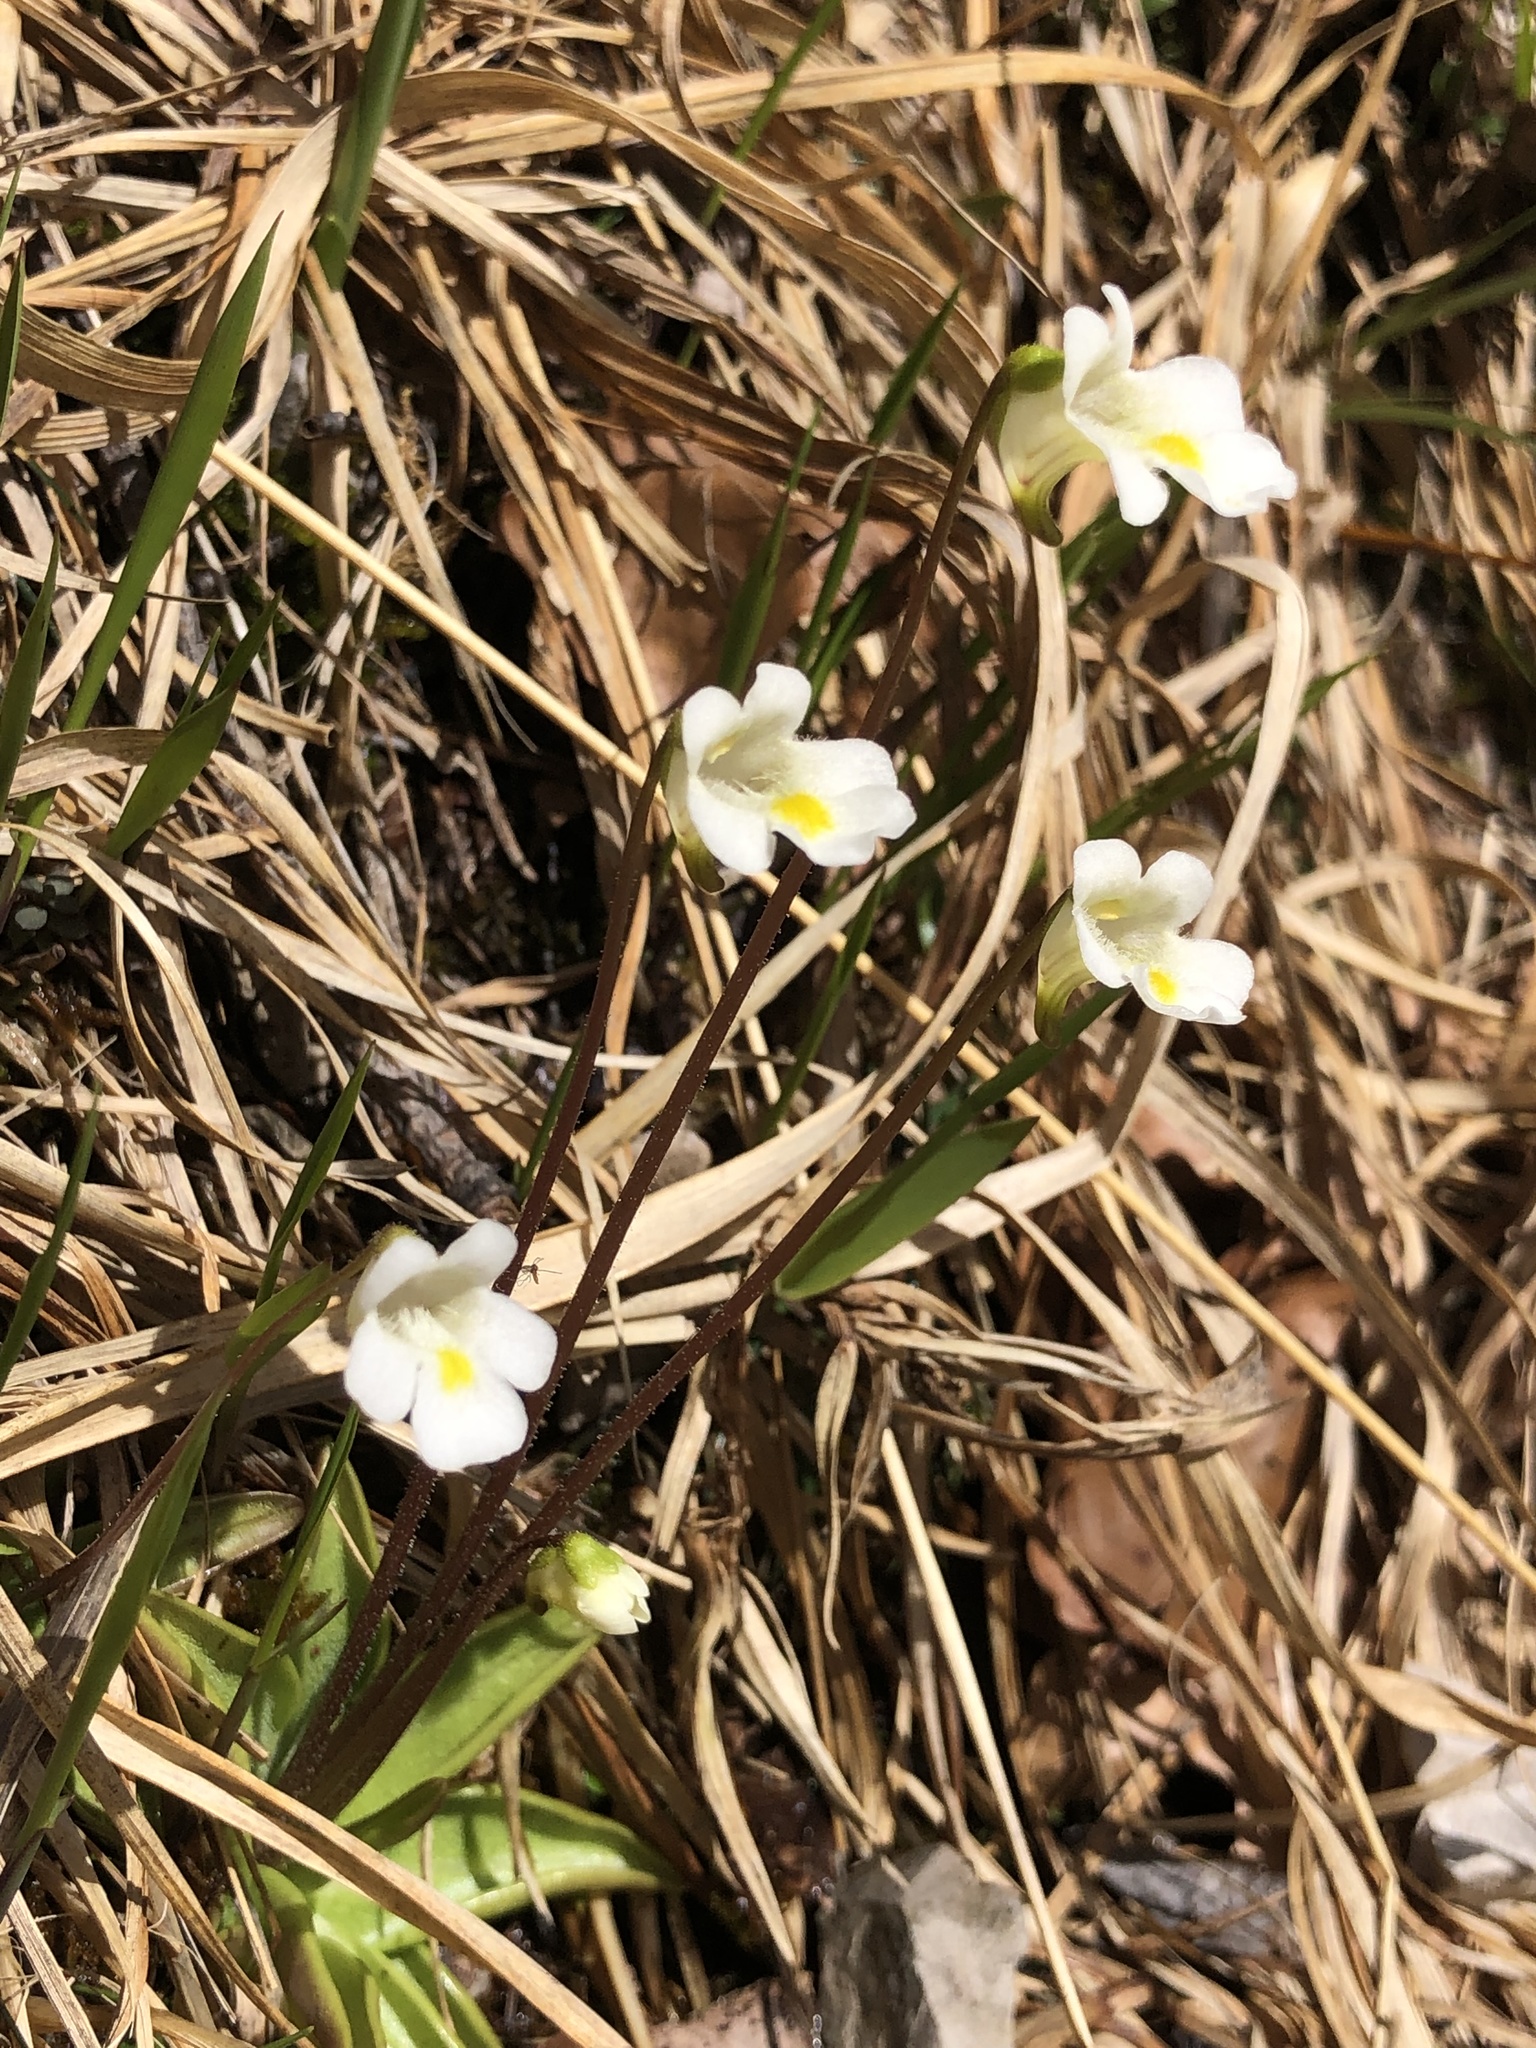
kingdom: Plantae
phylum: Tracheophyta
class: Magnoliopsida
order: Lamiales
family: Lentibulariaceae
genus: Pinguicula
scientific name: Pinguicula alpina
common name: Alpine butterwort
